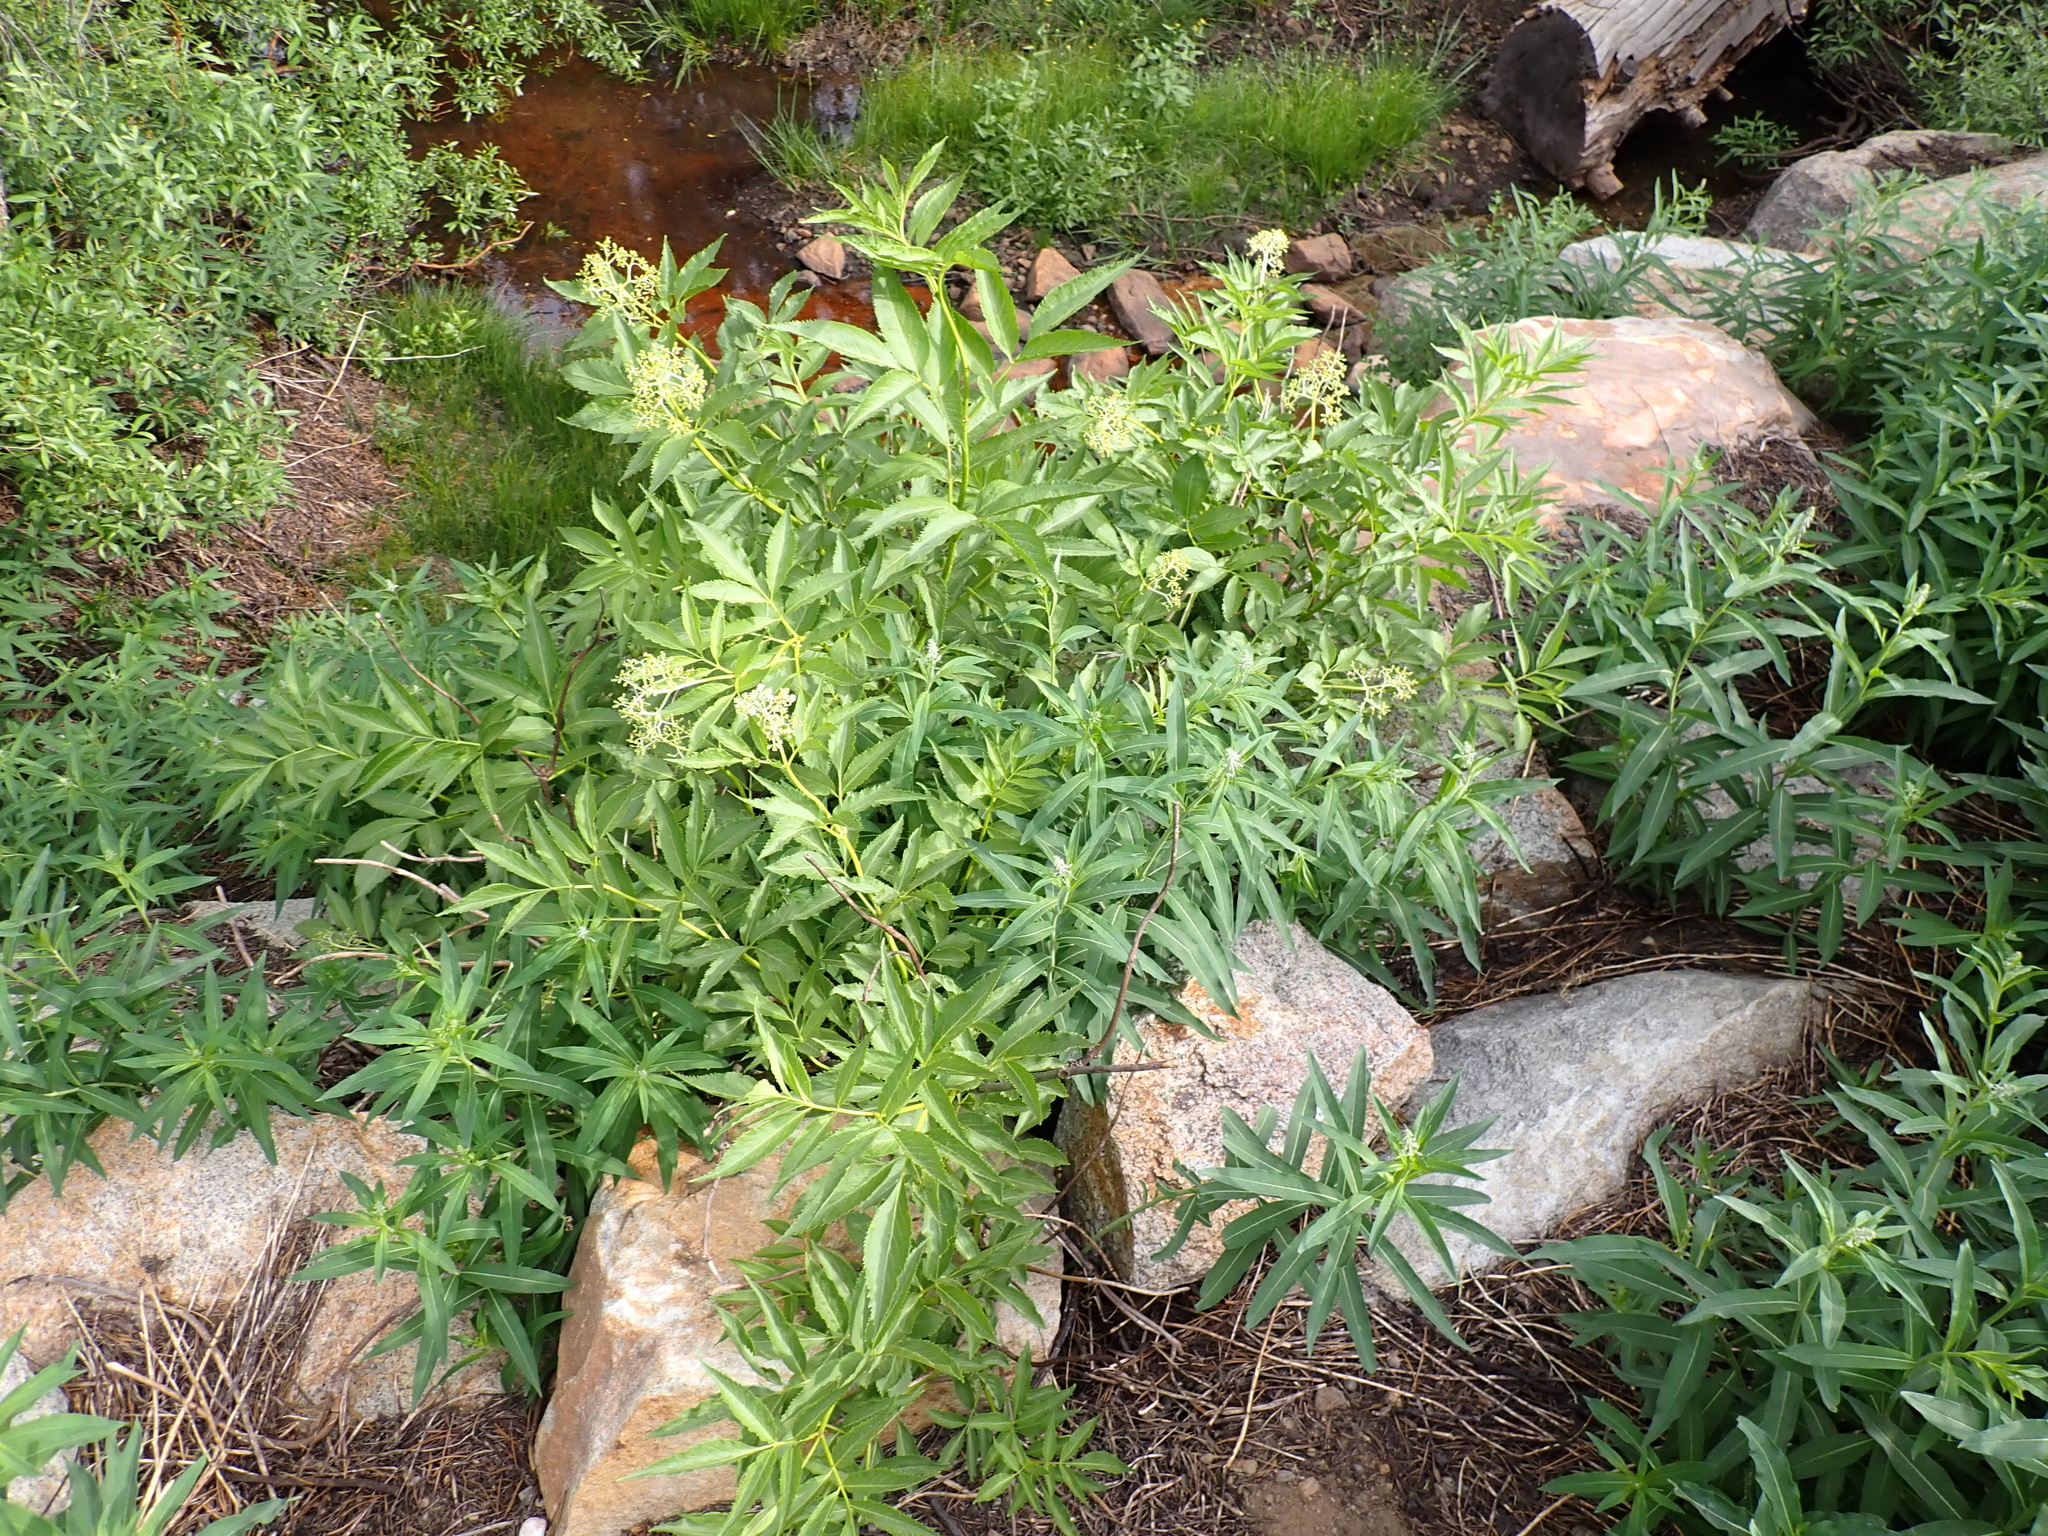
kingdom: Plantae
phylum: Tracheophyta
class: Magnoliopsida
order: Dipsacales
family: Viburnaceae
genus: Sambucus
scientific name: Sambucus racemosa
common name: Red-berried elder
